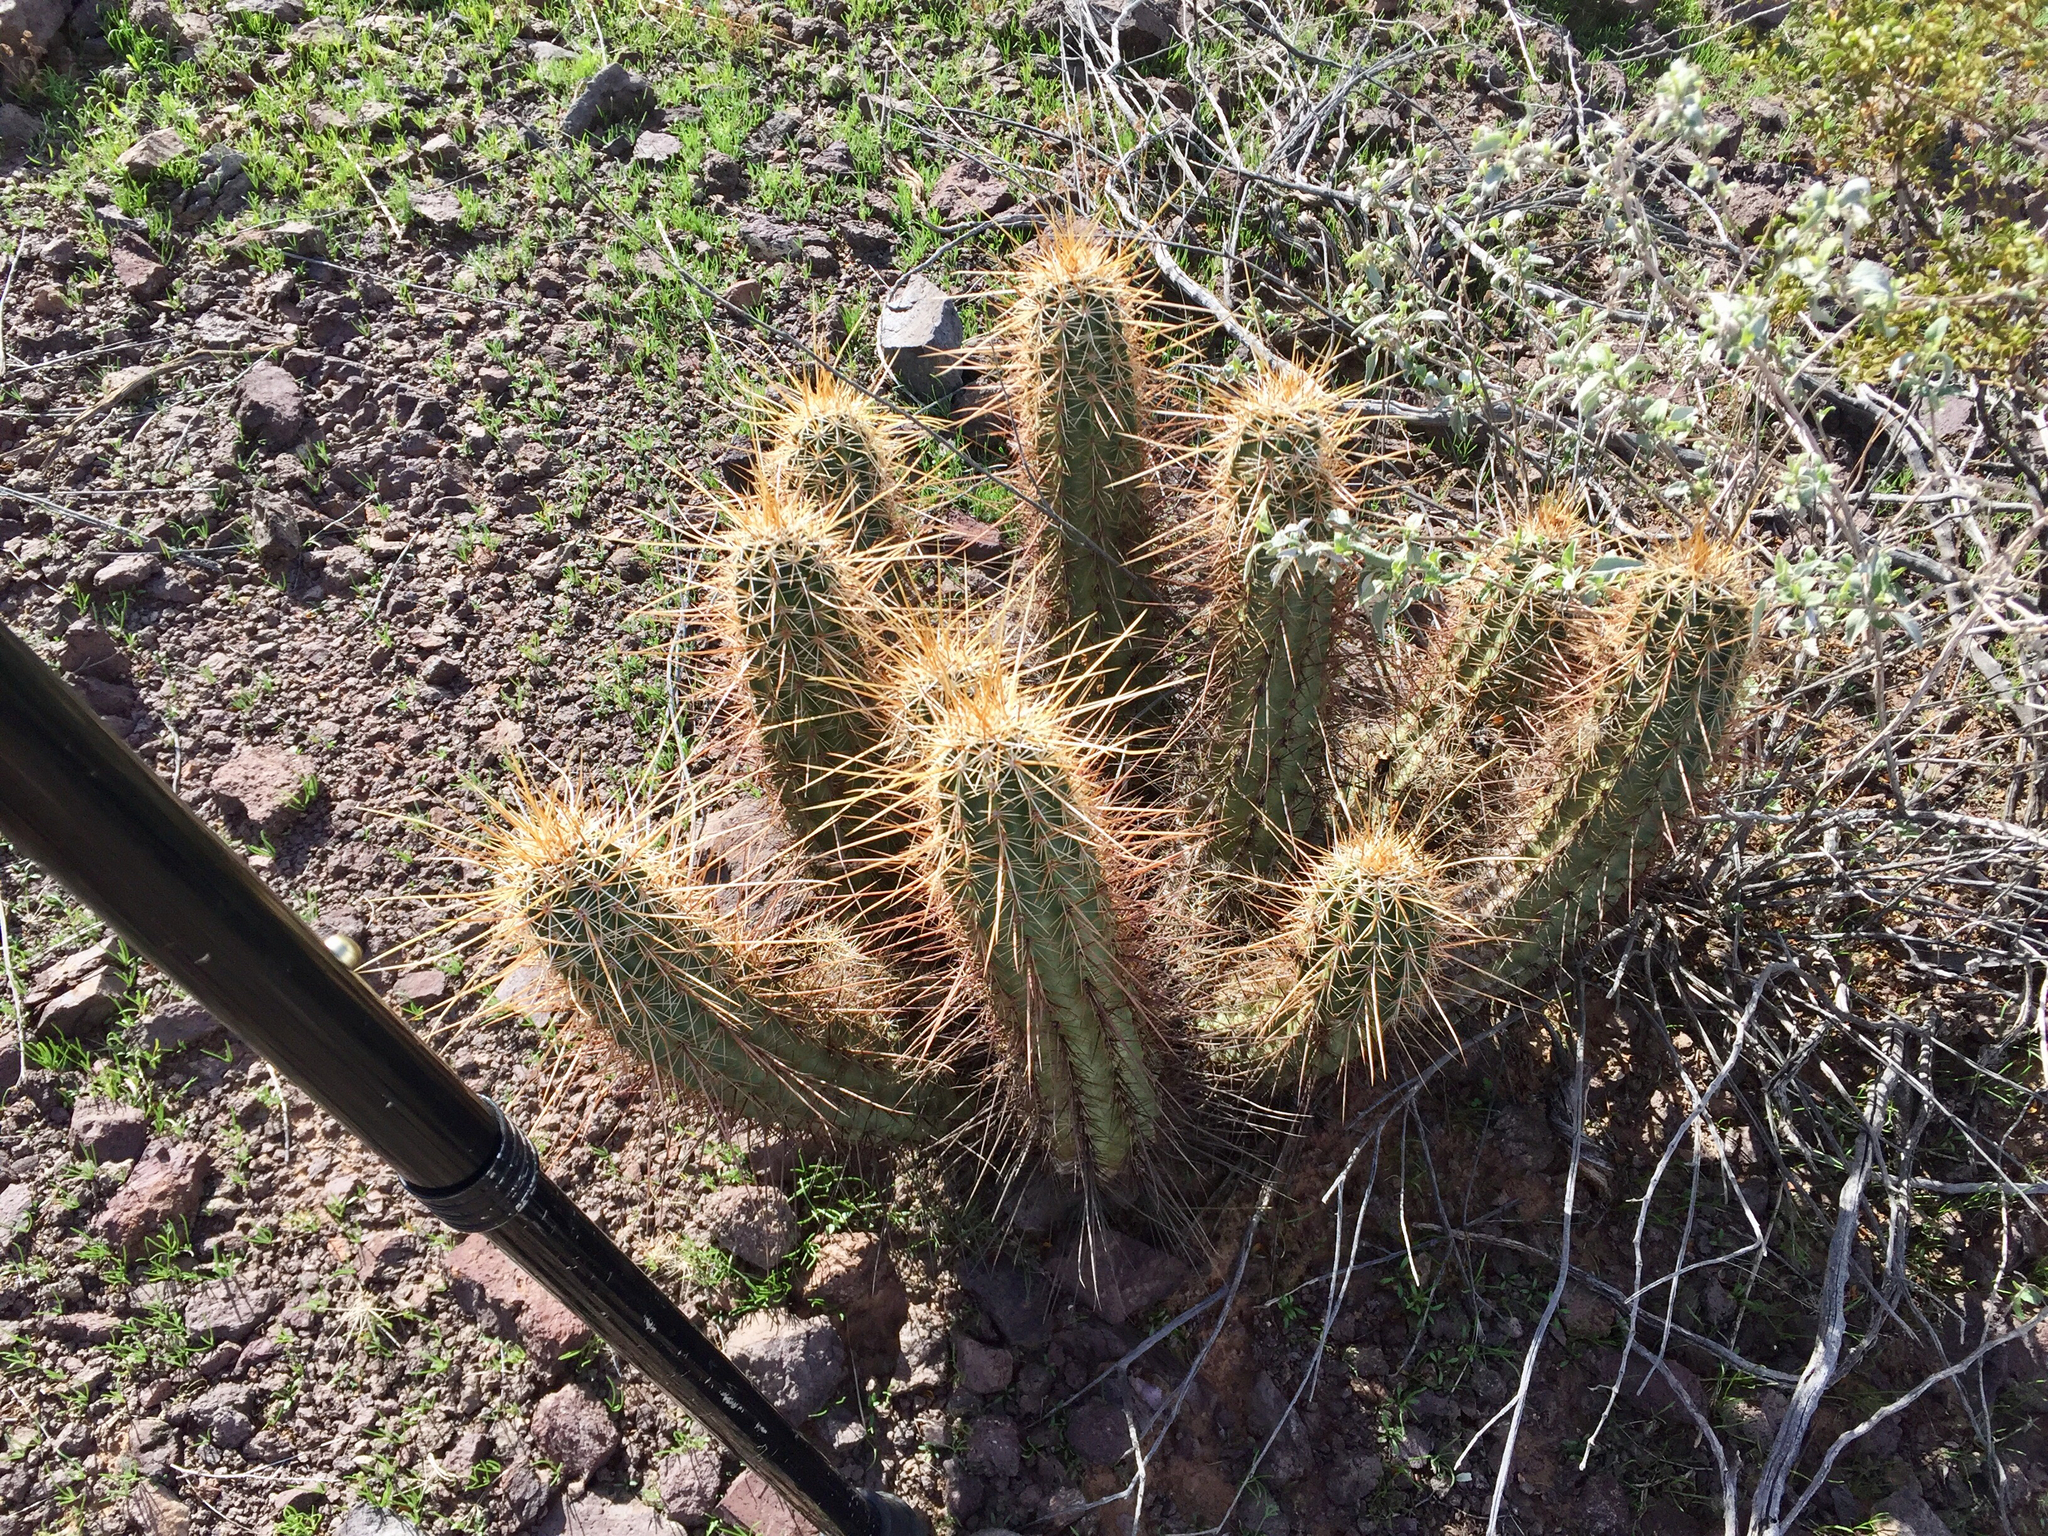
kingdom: Plantae
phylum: Tracheophyta
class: Magnoliopsida
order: Caryophyllales
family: Cactaceae
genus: Echinocereus
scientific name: Echinocereus engelmannii
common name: Engelmann's hedgehog cactus
